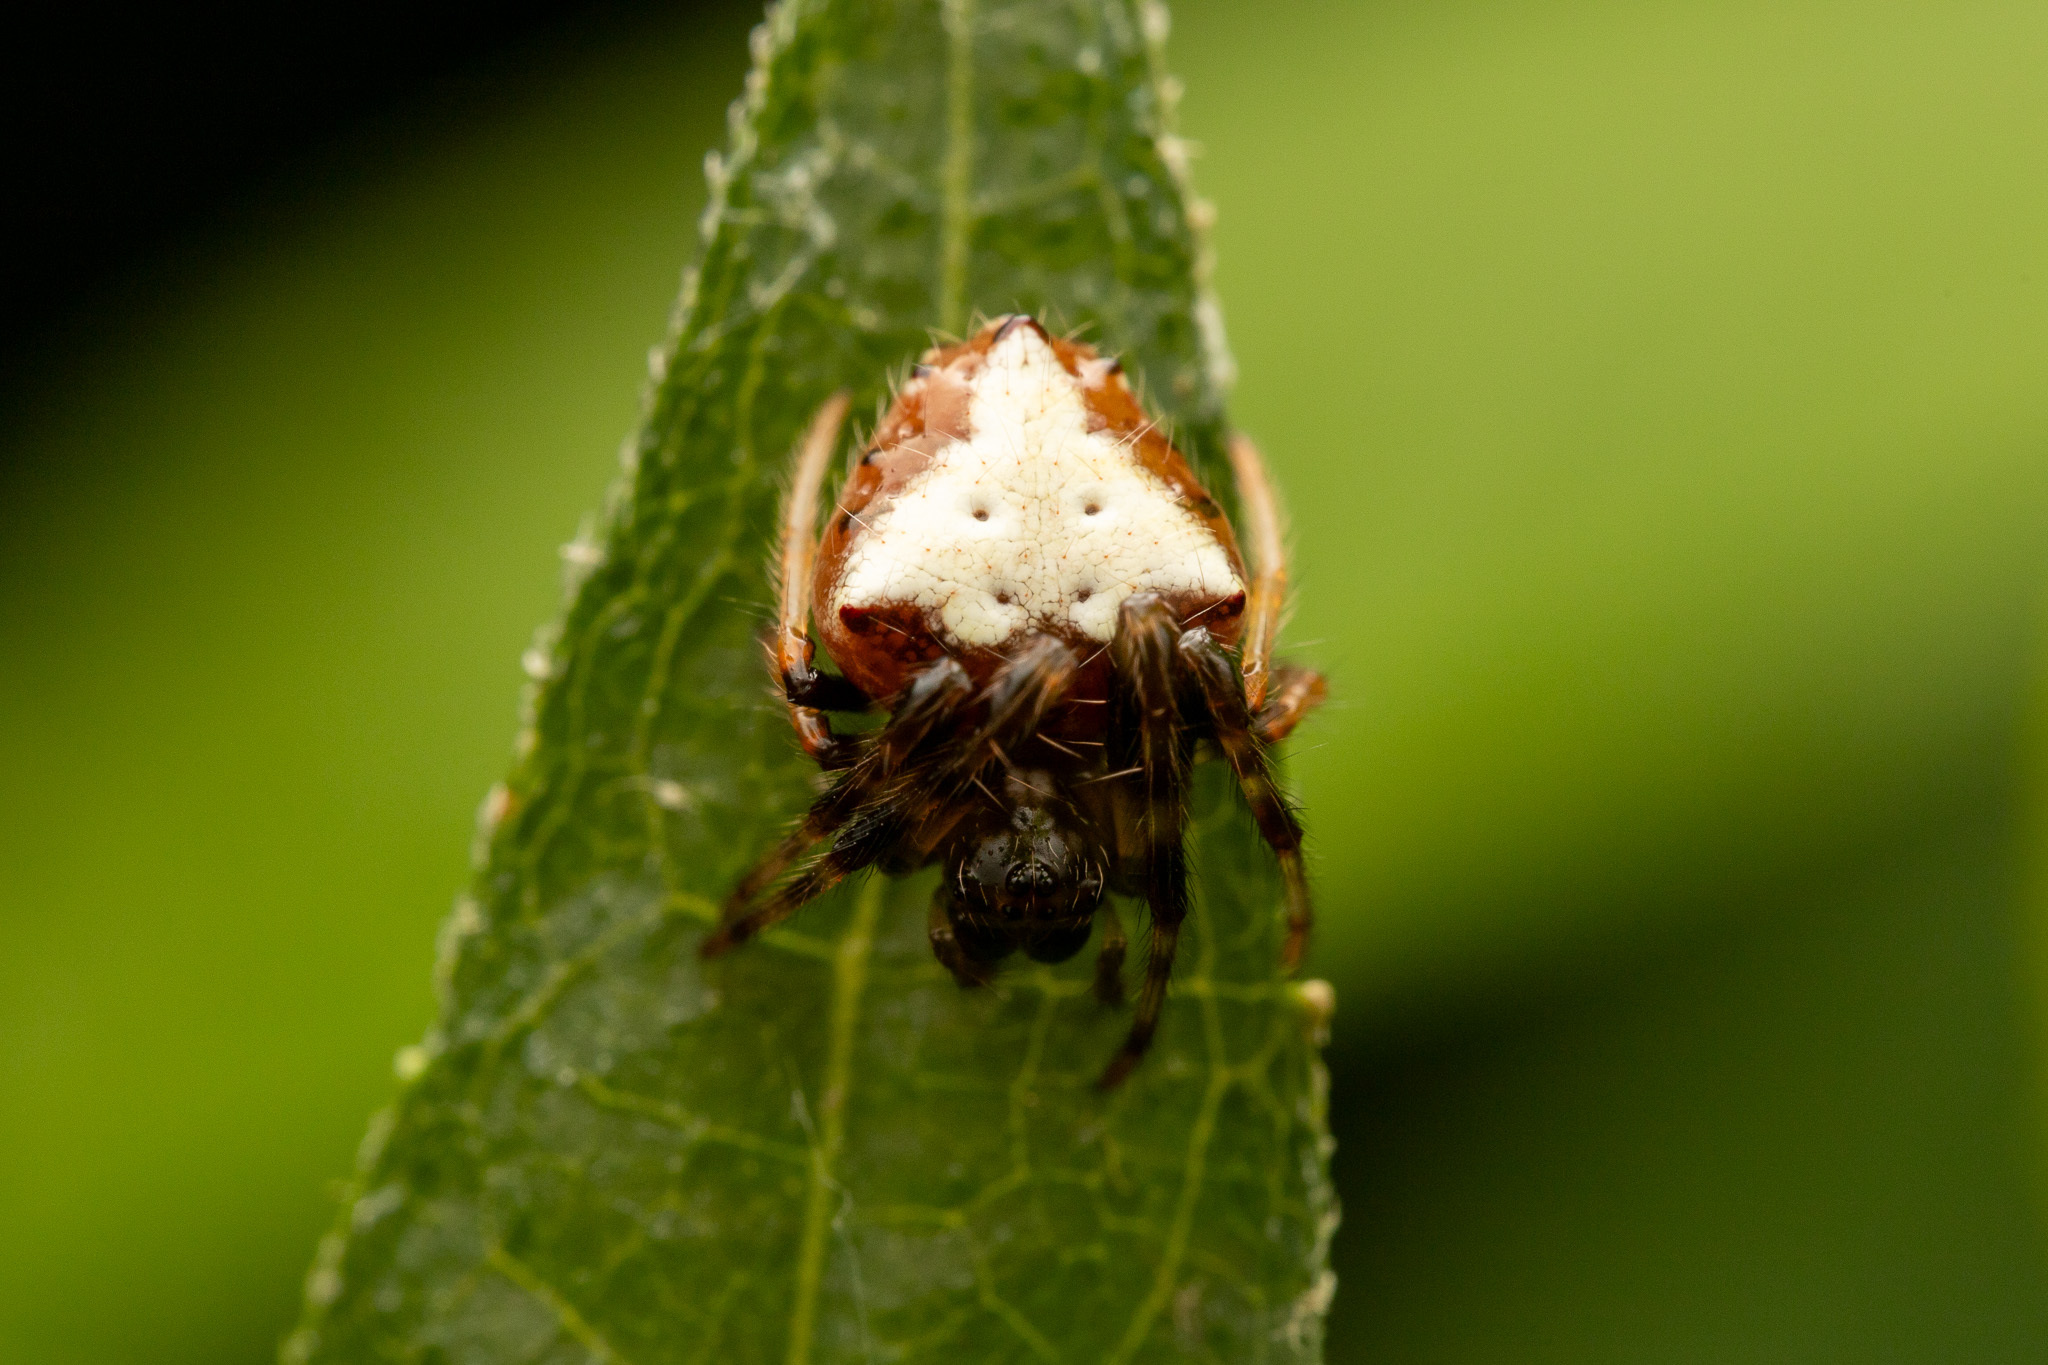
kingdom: Animalia
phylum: Arthropoda
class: Arachnida
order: Araneae
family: Araneidae
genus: Verrucosa
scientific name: Verrucosa arenata
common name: Orb weavers
